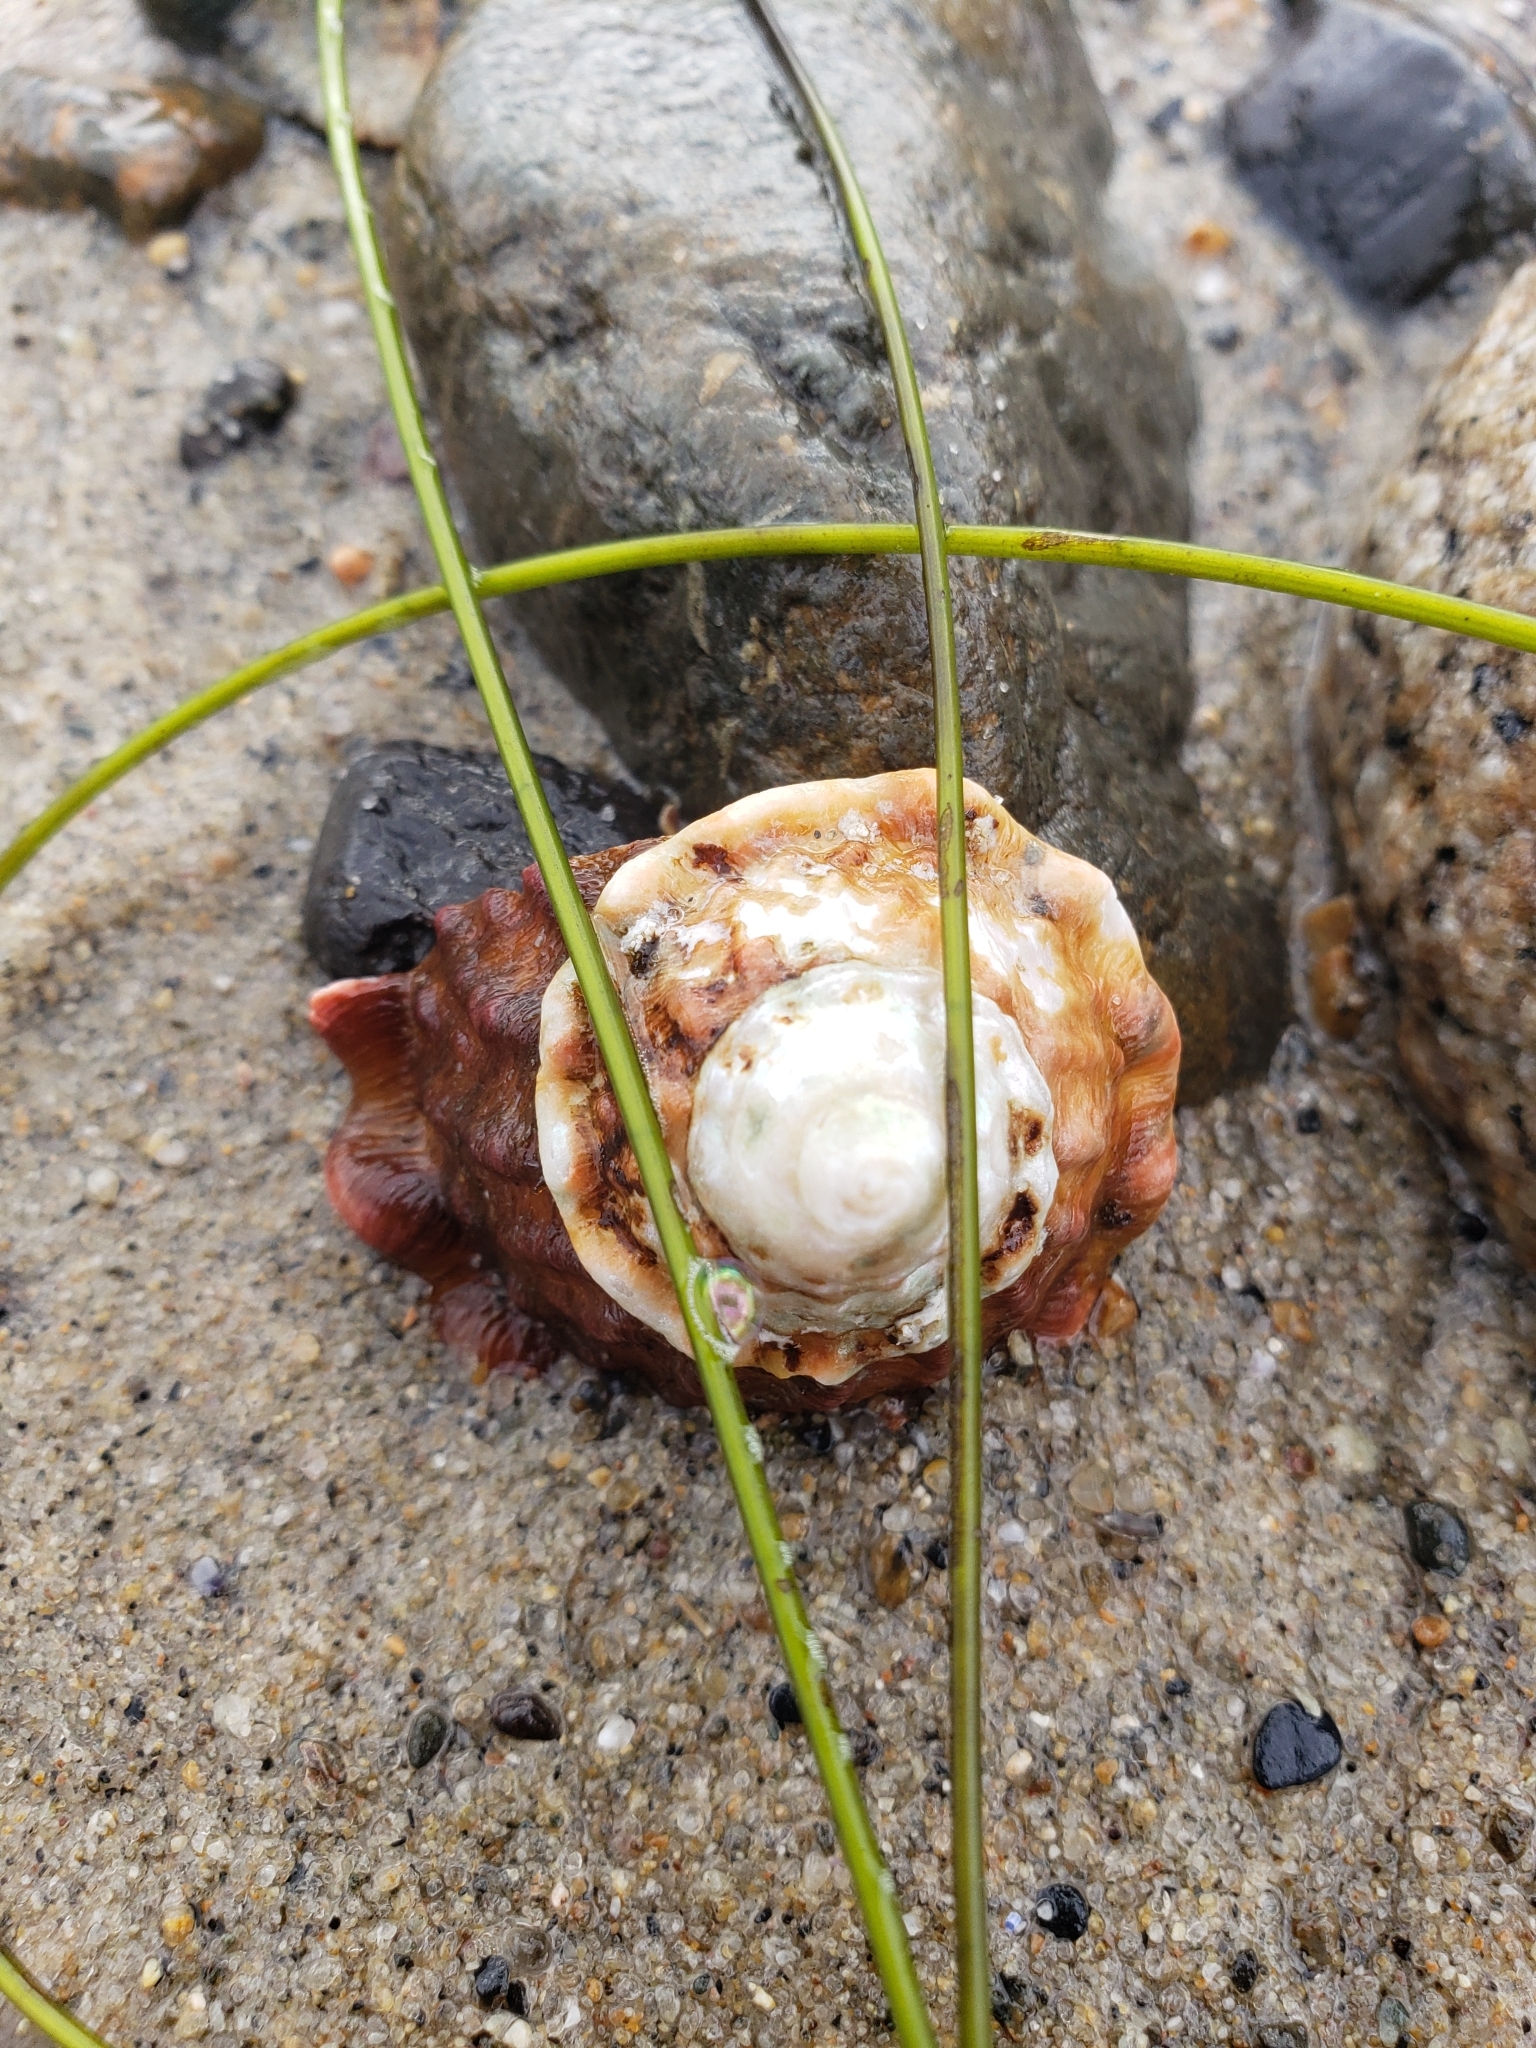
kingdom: Animalia
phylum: Mollusca
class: Gastropoda
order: Trochida
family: Turbinidae
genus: Megastraea
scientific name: Megastraea undosa
